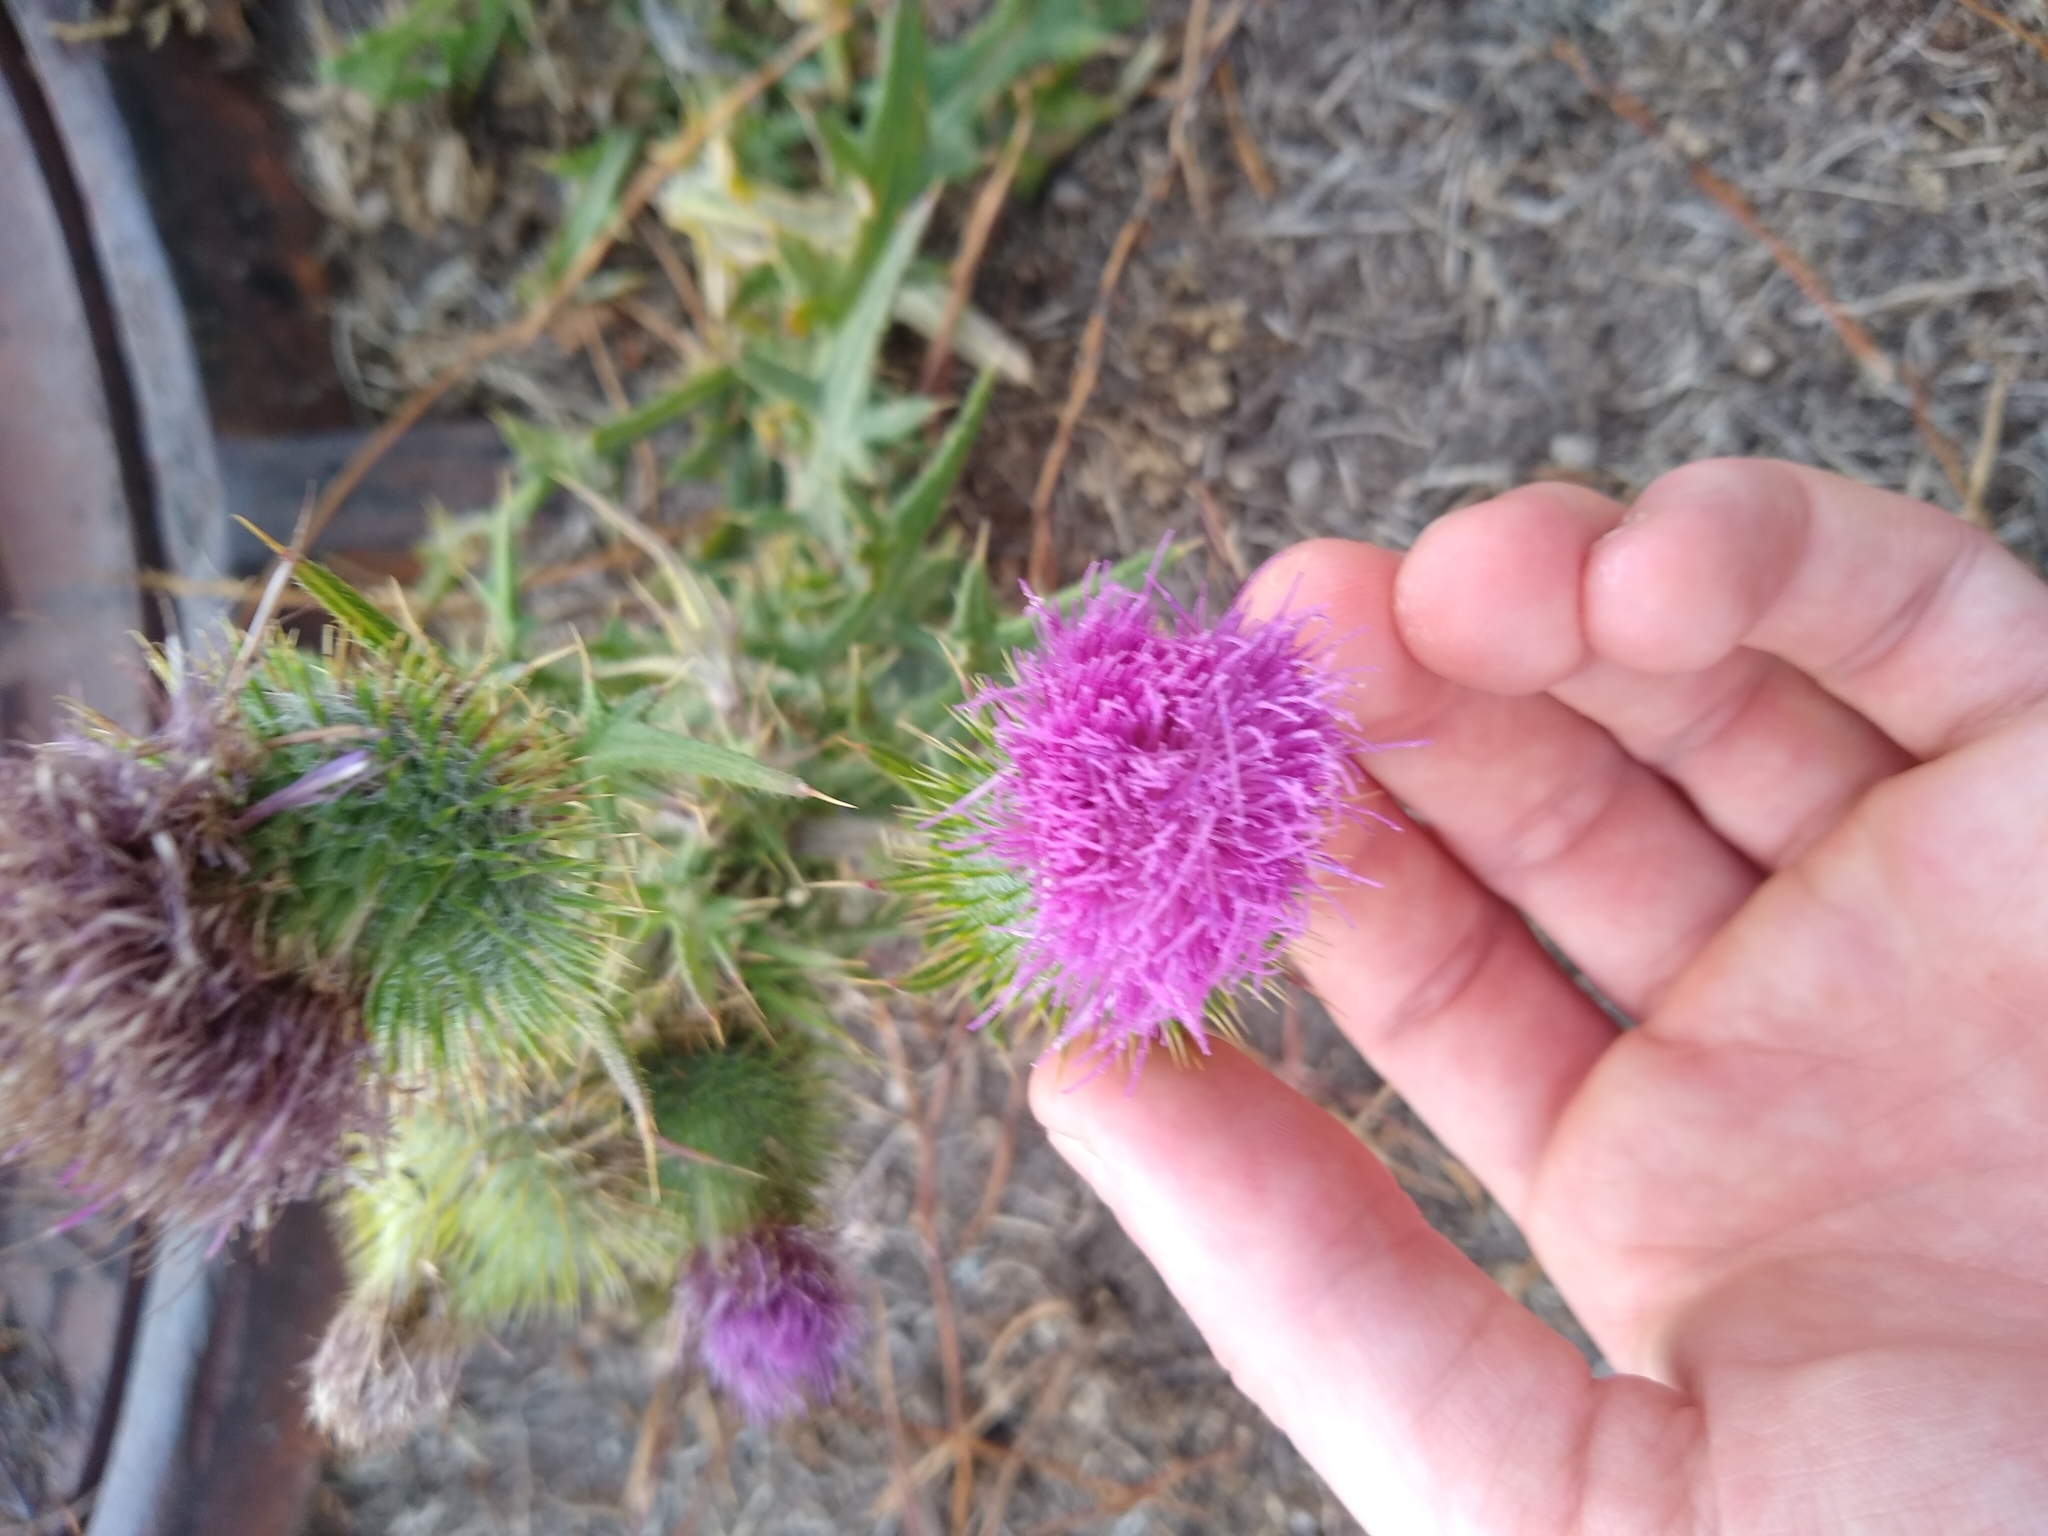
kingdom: Plantae
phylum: Tracheophyta
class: Magnoliopsida
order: Asterales
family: Asteraceae
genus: Cirsium
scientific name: Cirsium vulgare
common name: Bull thistle
